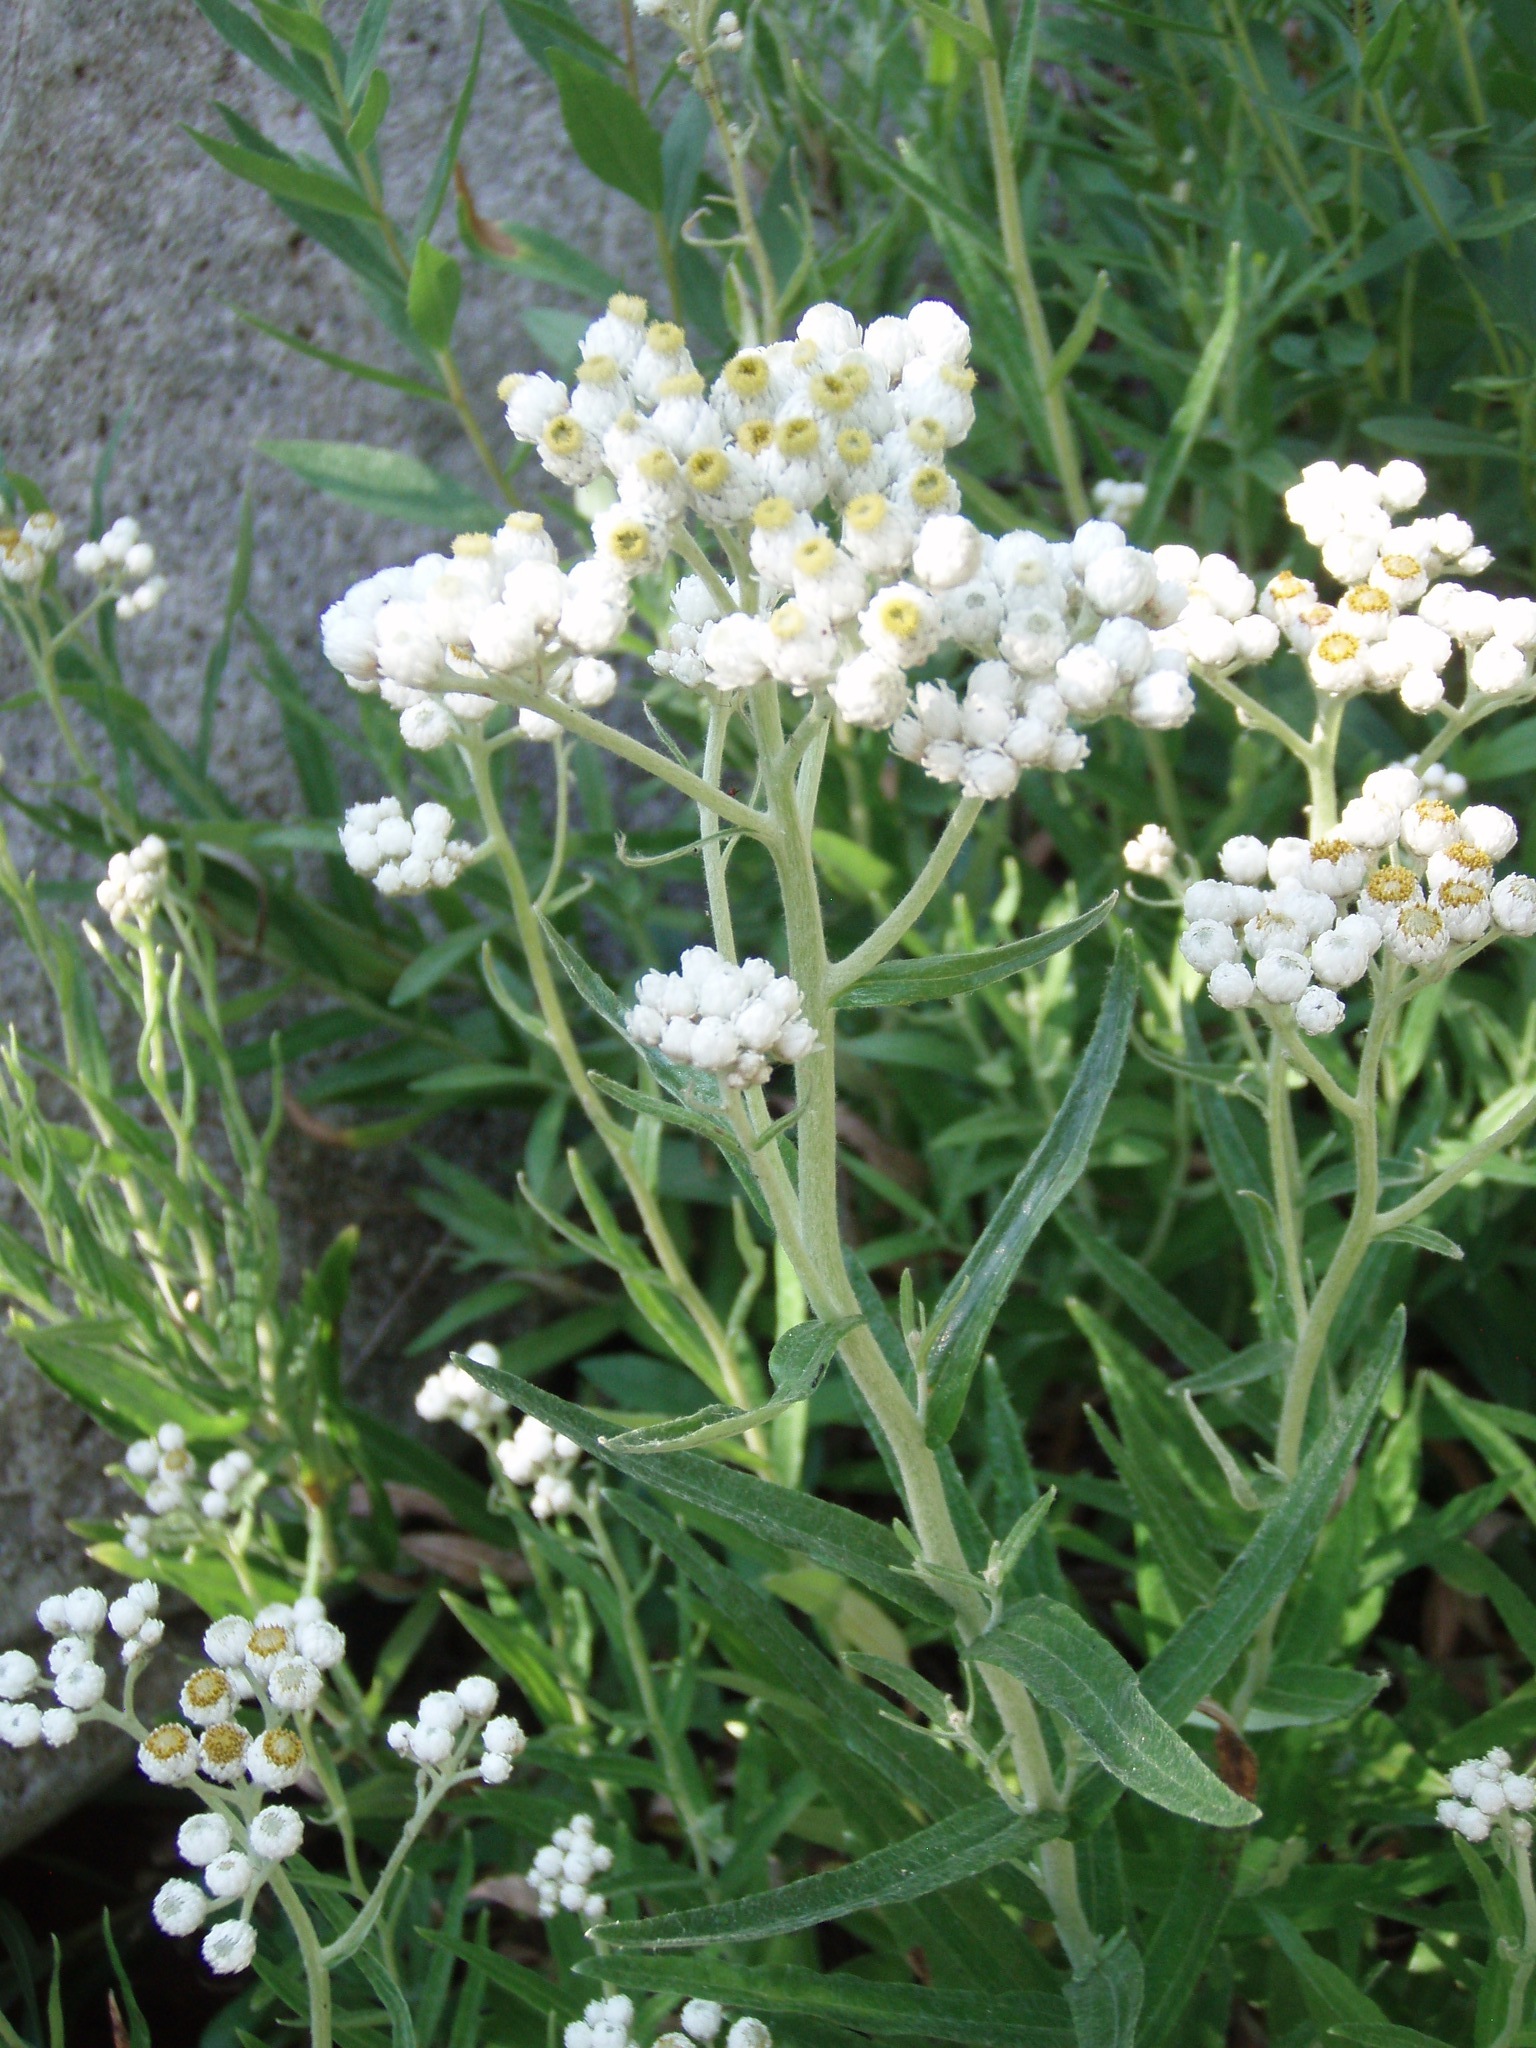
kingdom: Plantae
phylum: Tracheophyta
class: Magnoliopsida
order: Asterales
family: Asteraceae
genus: Anaphalis
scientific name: Anaphalis margaritacea
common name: Pearly everlasting
